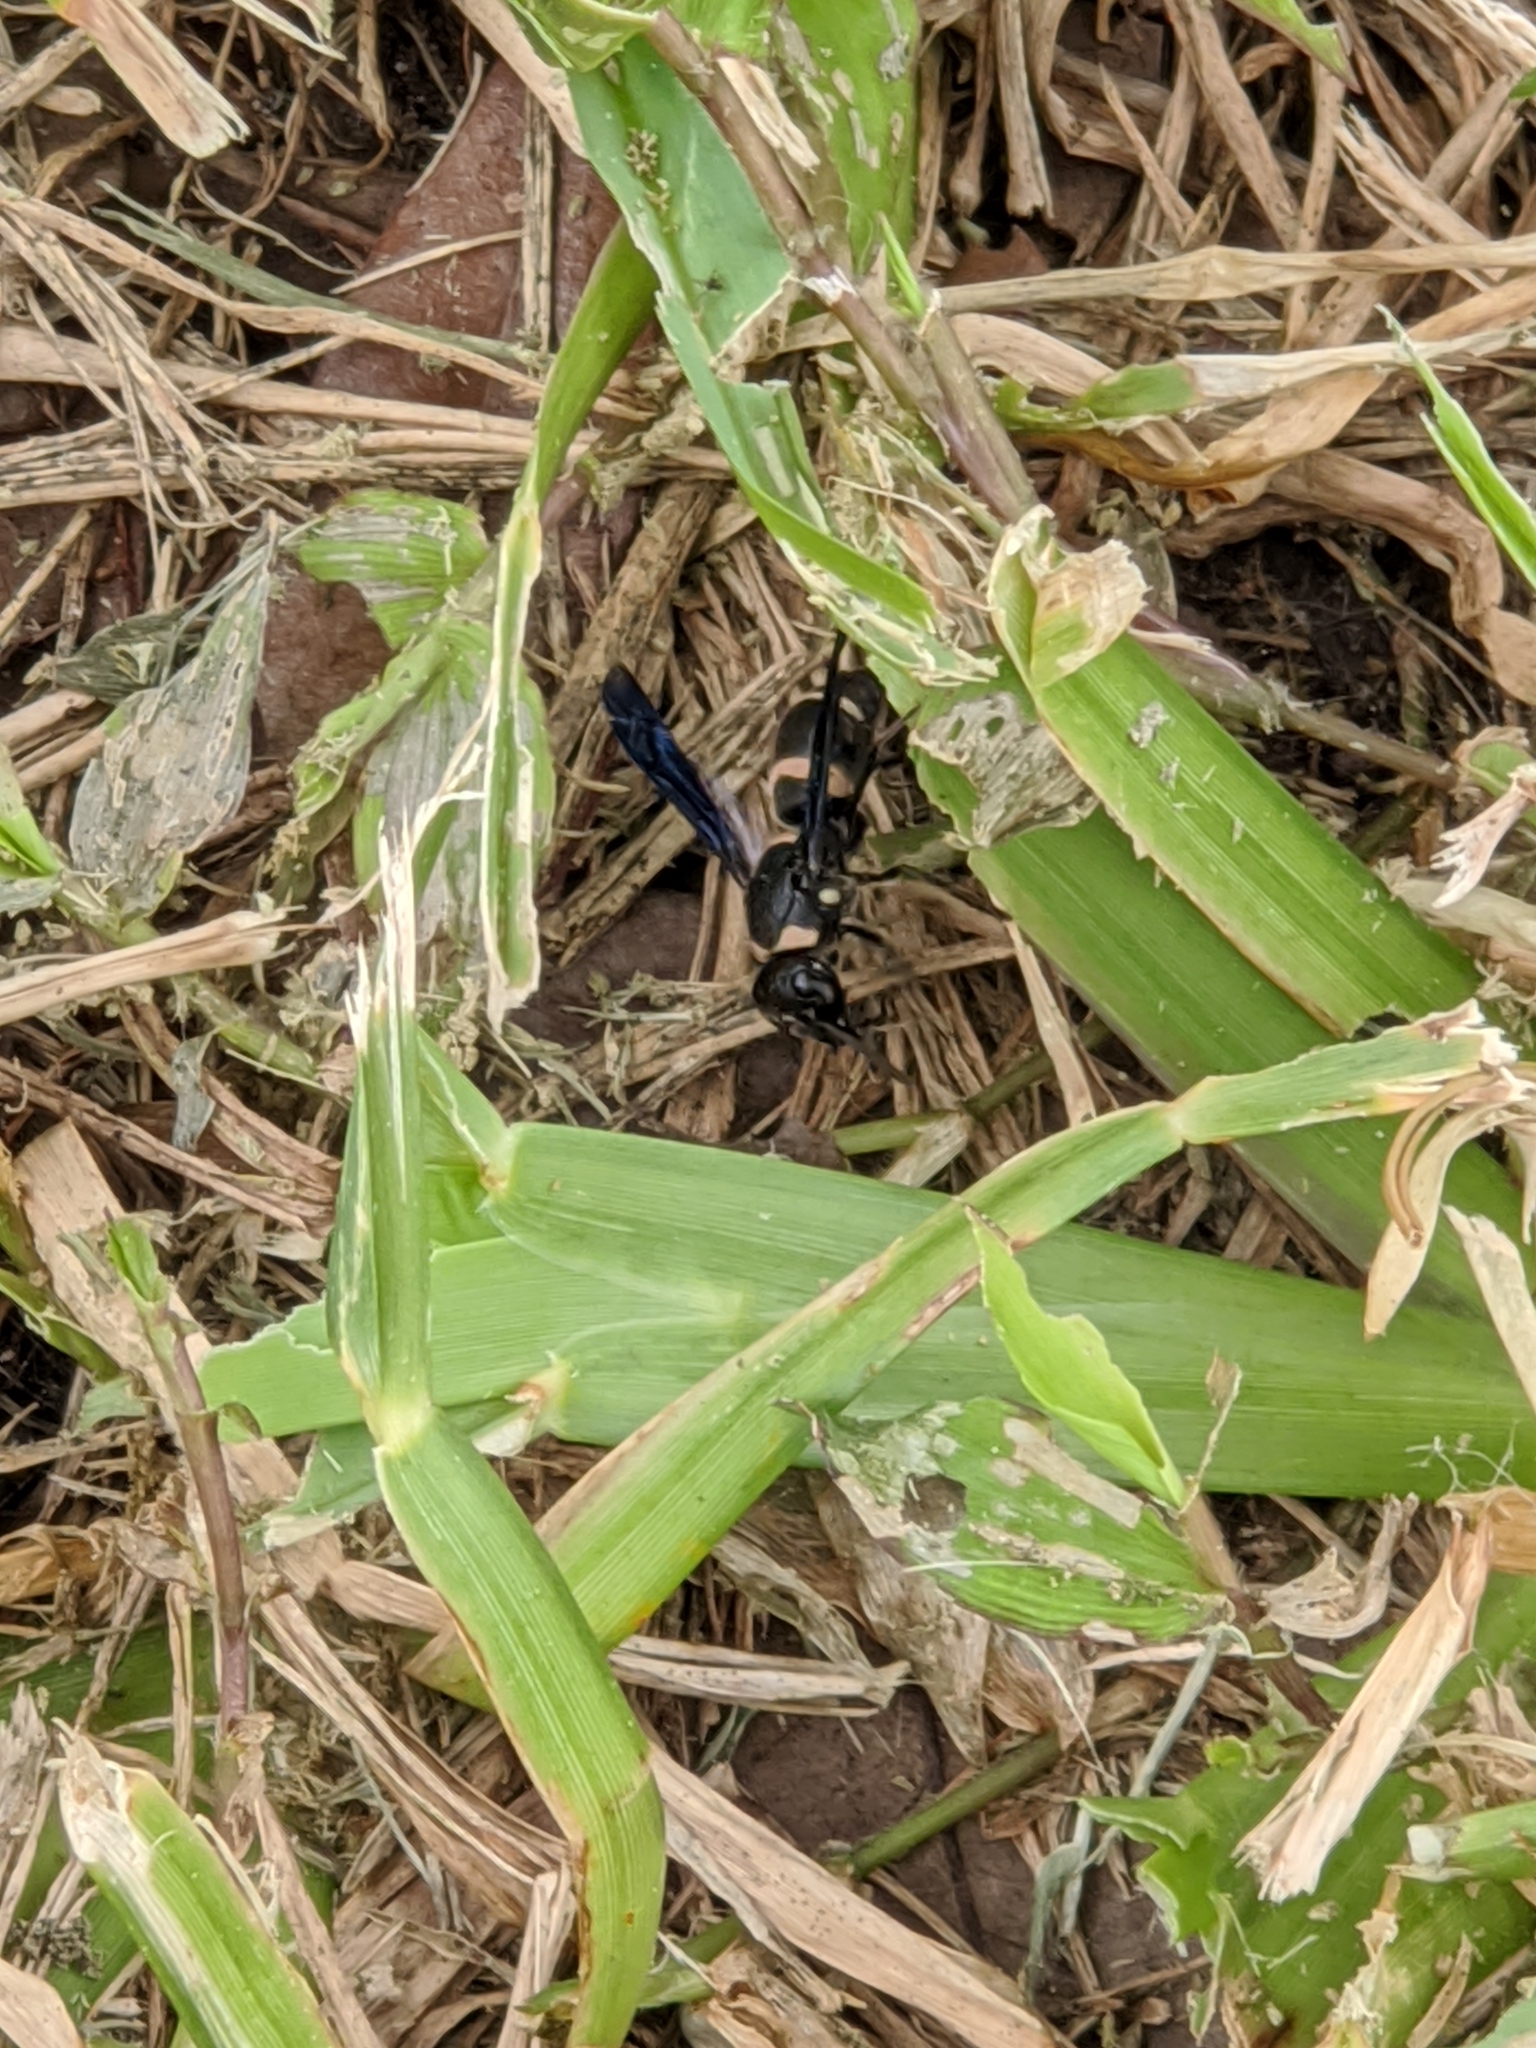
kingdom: Animalia
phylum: Arthropoda
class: Insecta
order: Hymenoptera
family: Eumenidae
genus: Pseudodynerus
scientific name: Pseudodynerus quadrisectus
